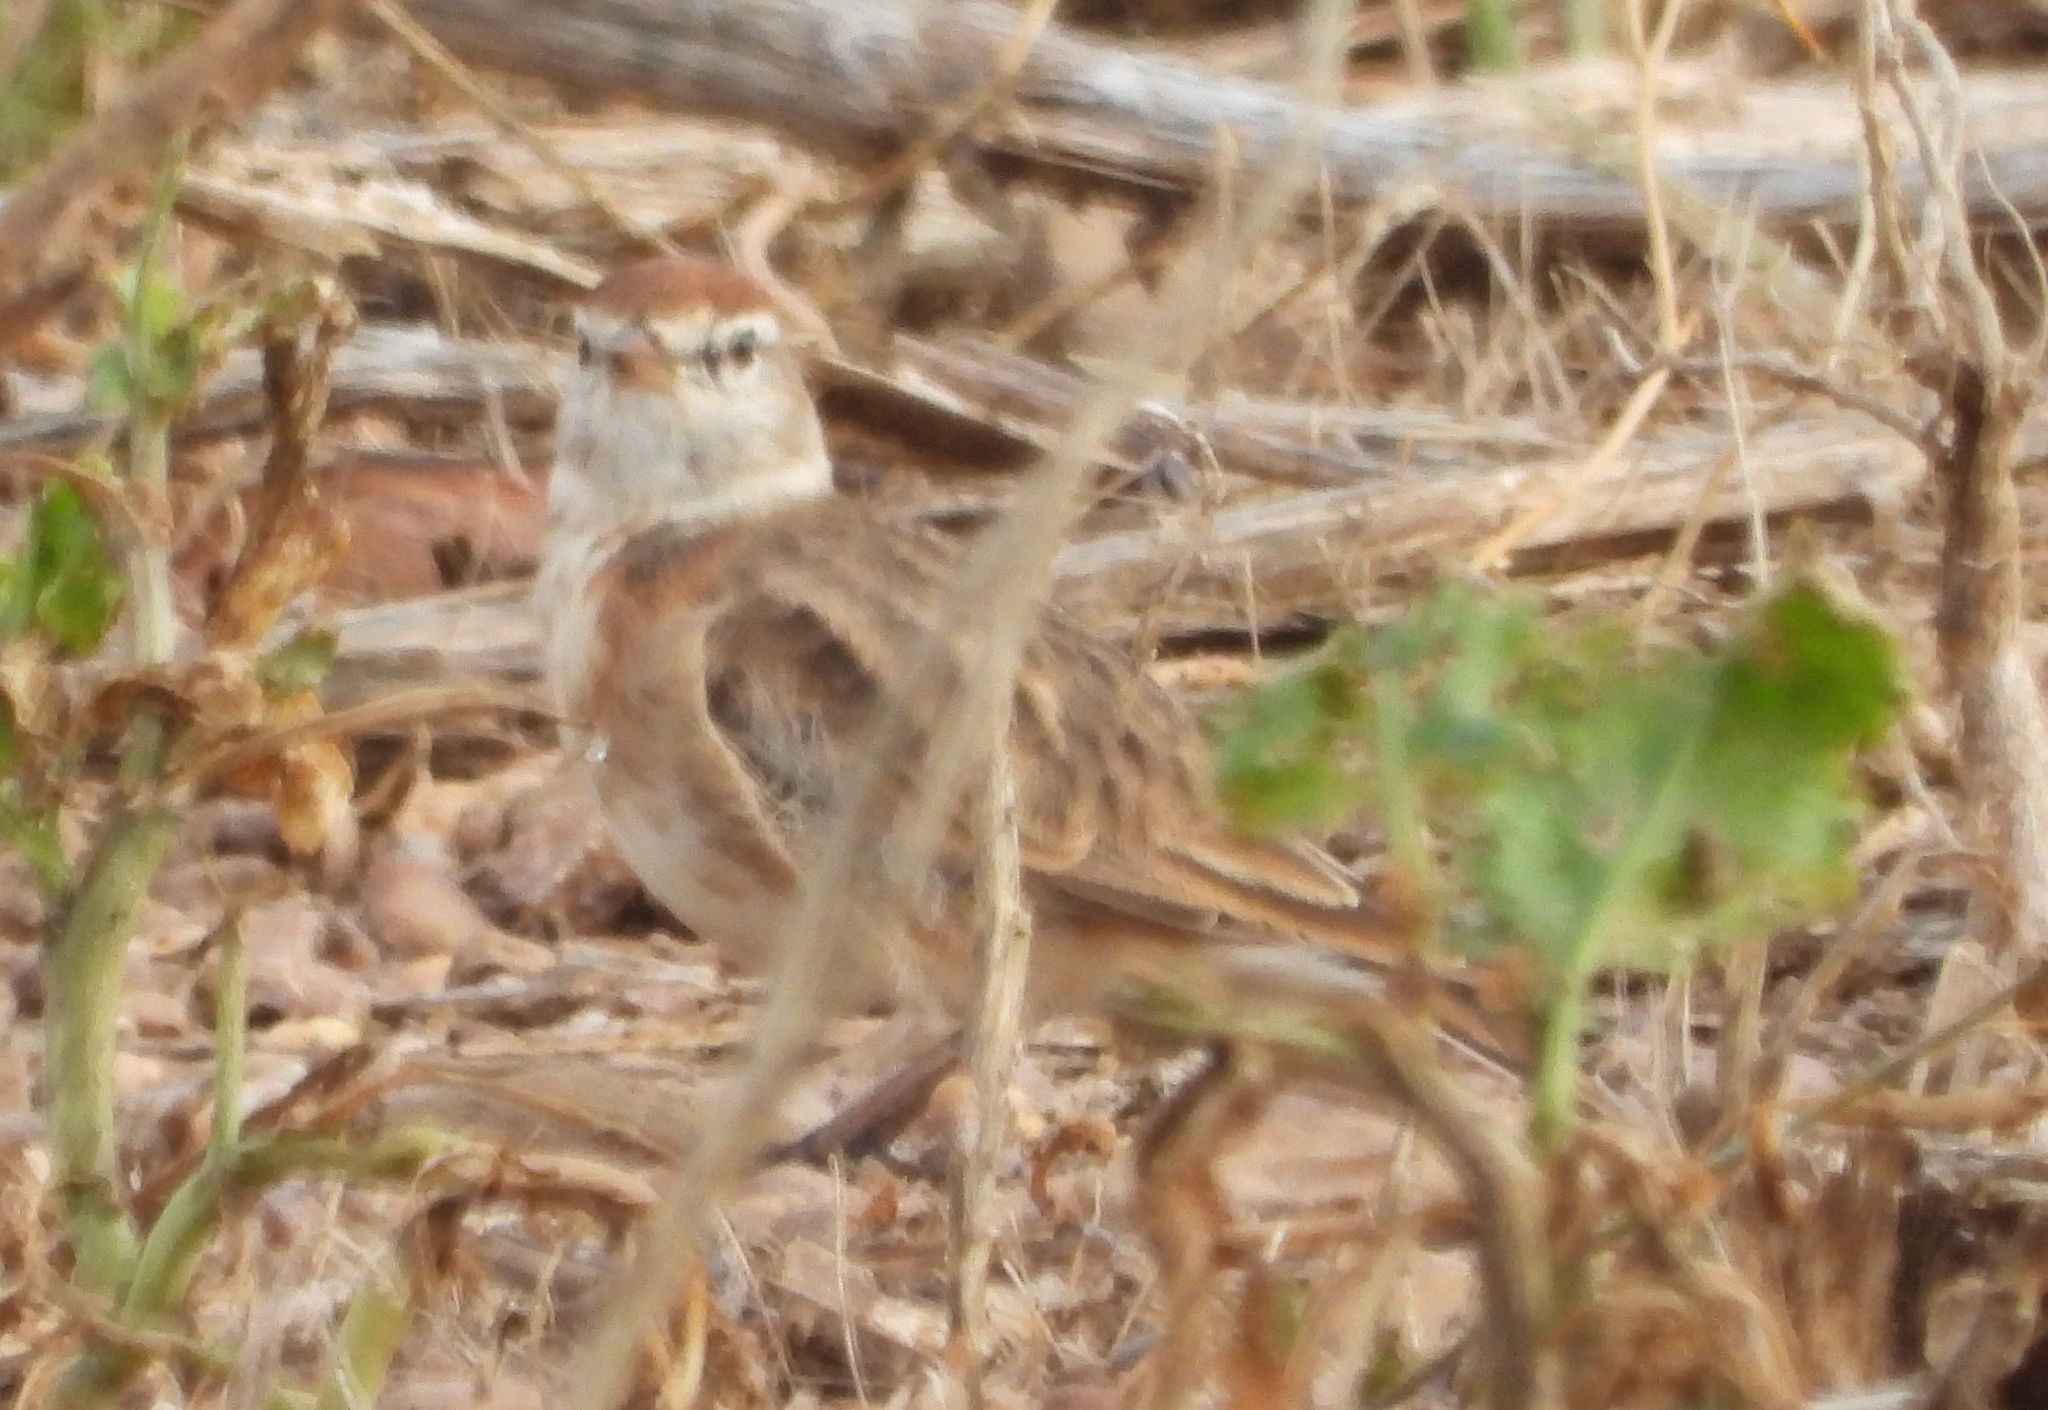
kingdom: Animalia
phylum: Chordata
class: Aves
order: Passeriformes
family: Alaudidae
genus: Calandrella
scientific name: Calandrella cinerea
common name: Red-capped lark
